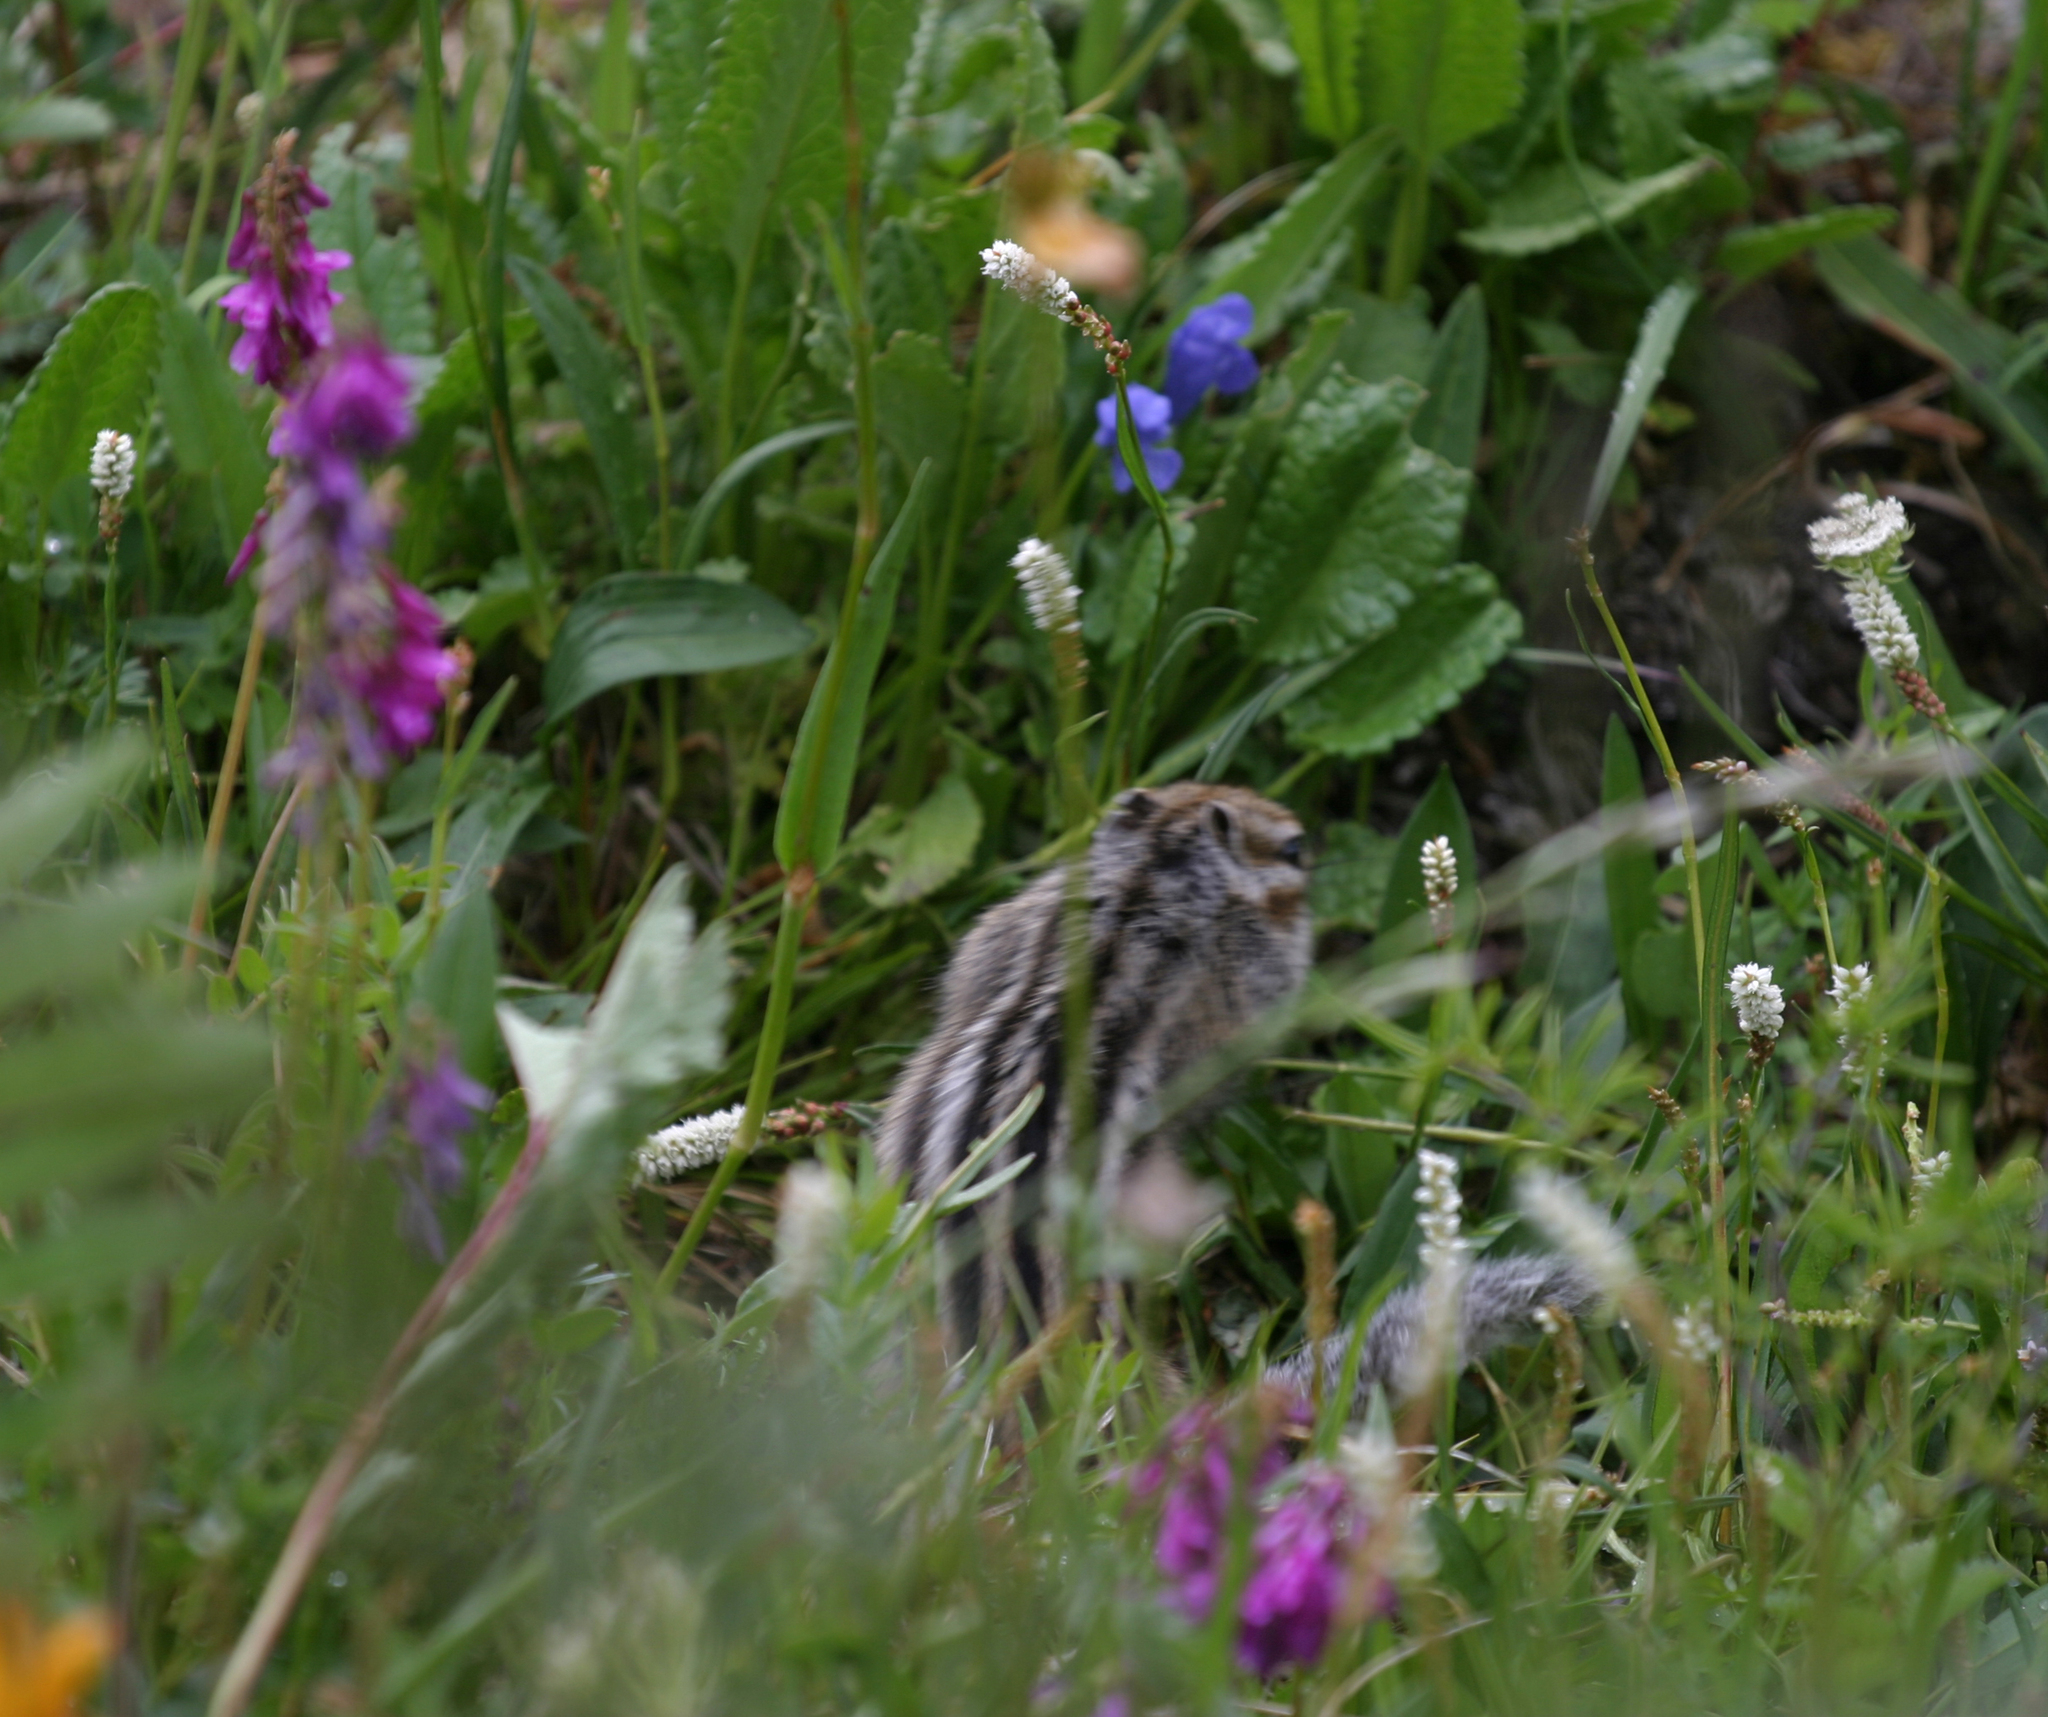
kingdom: Plantae
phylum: Tracheophyta
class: Magnoliopsida
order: Caryophyllales
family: Polygonaceae
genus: Bistorta
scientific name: Bistorta vivipara
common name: Alpine bistort
